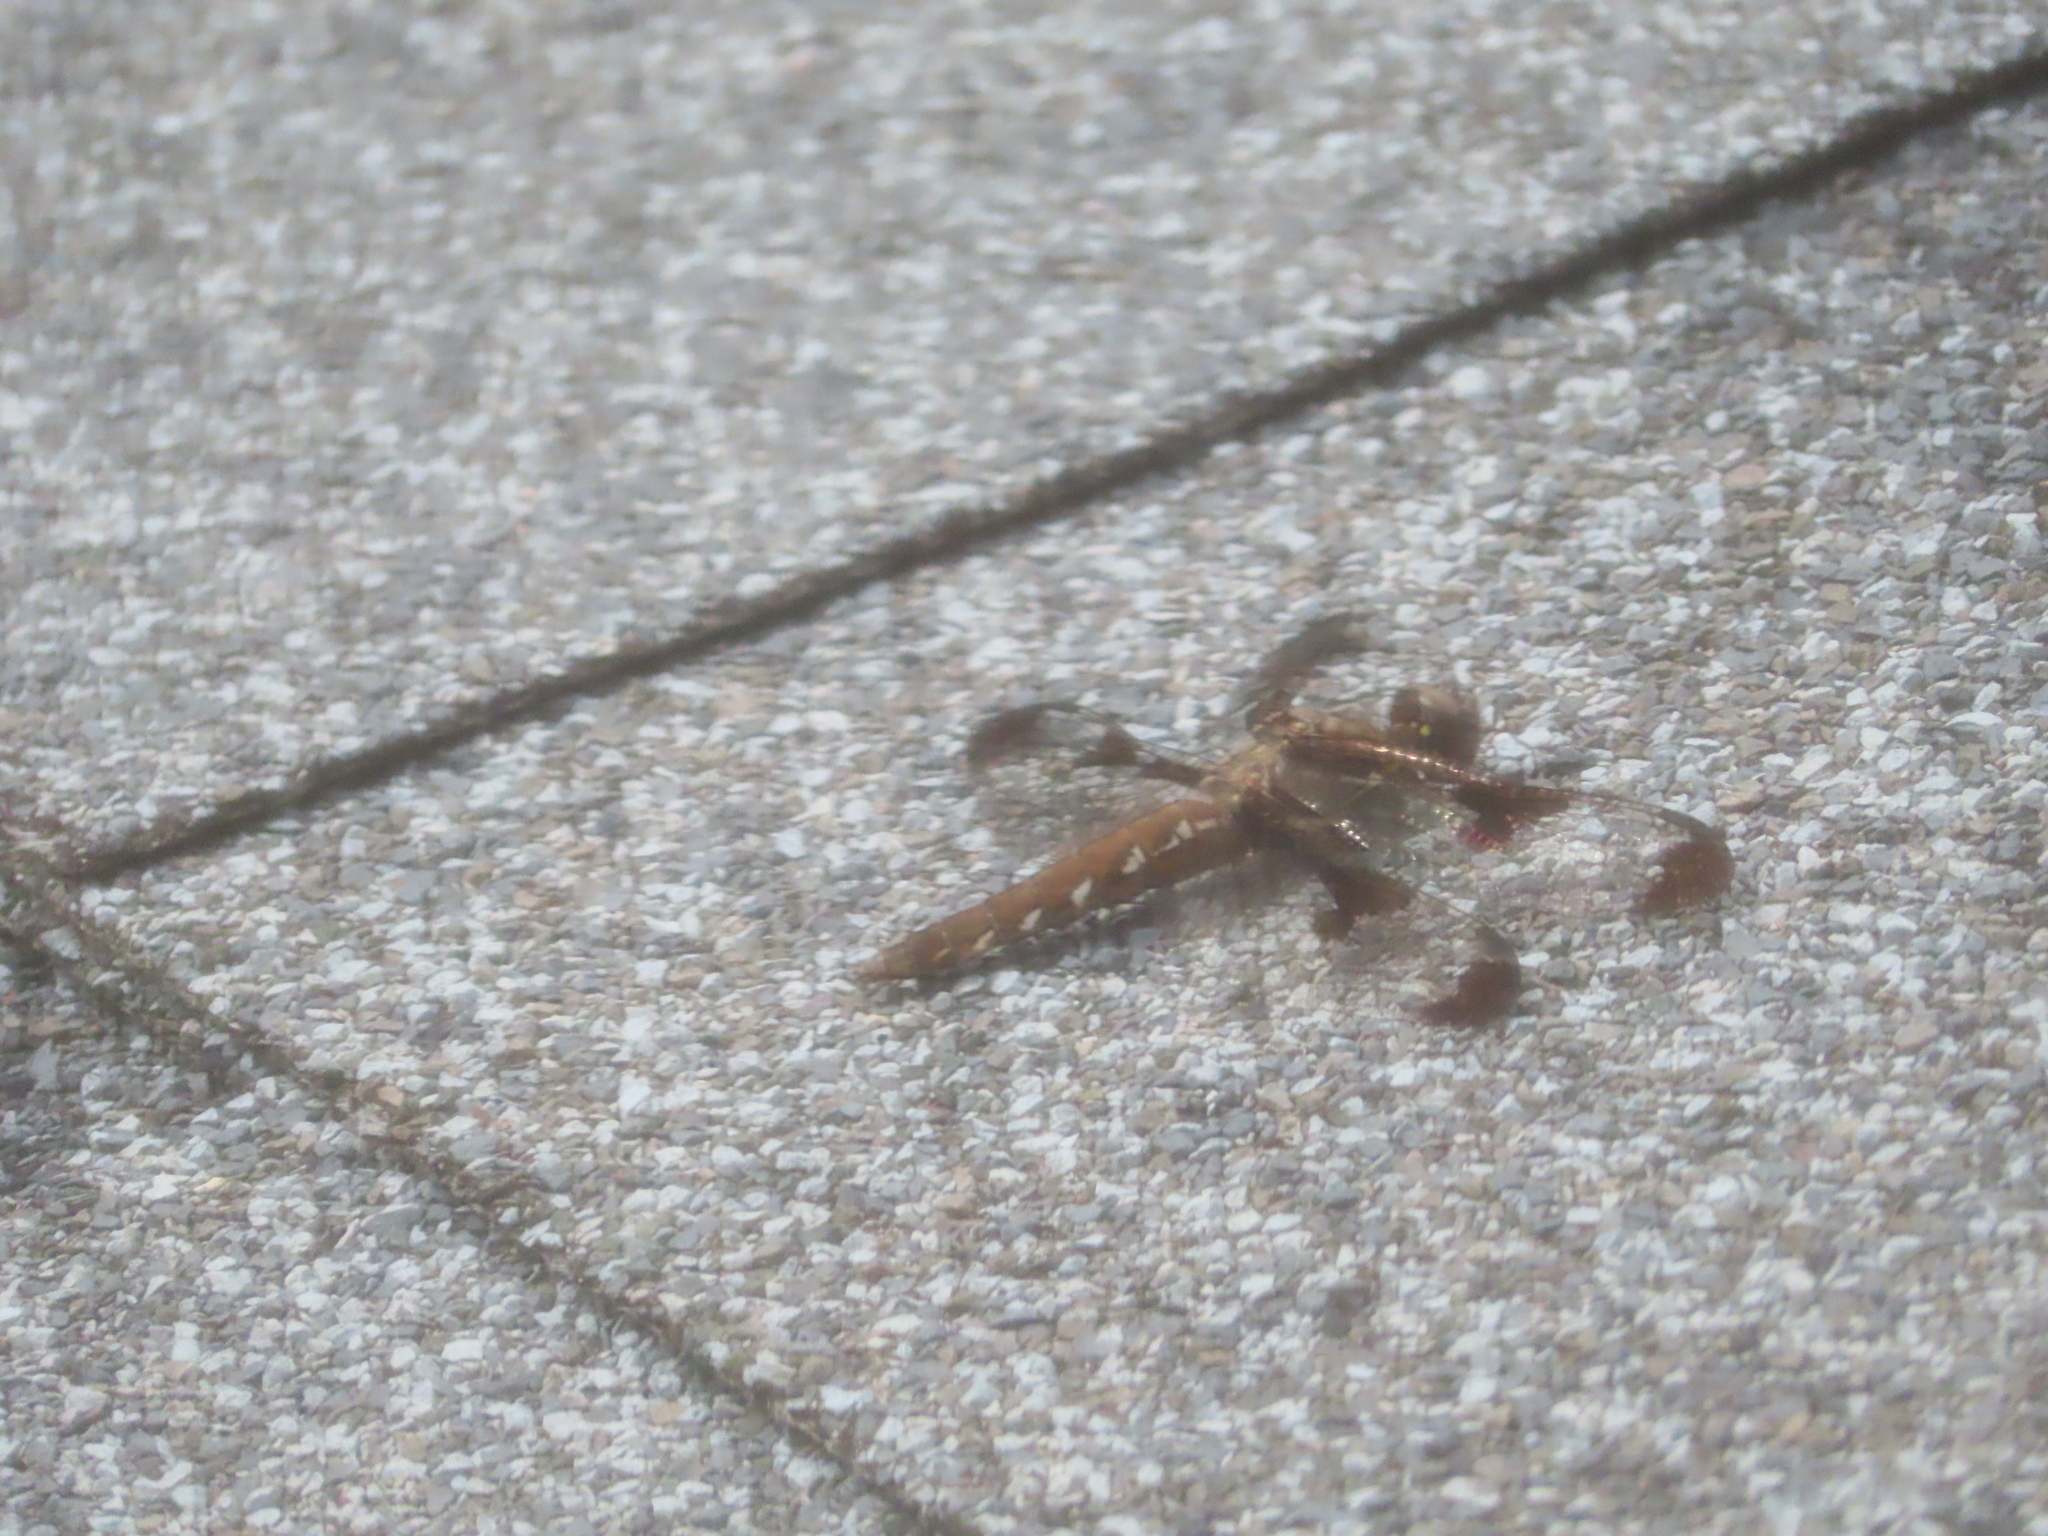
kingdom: Animalia
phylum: Arthropoda
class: Insecta
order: Odonata
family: Libellulidae
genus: Plathemis
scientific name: Plathemis lydia
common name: Common whitetail
